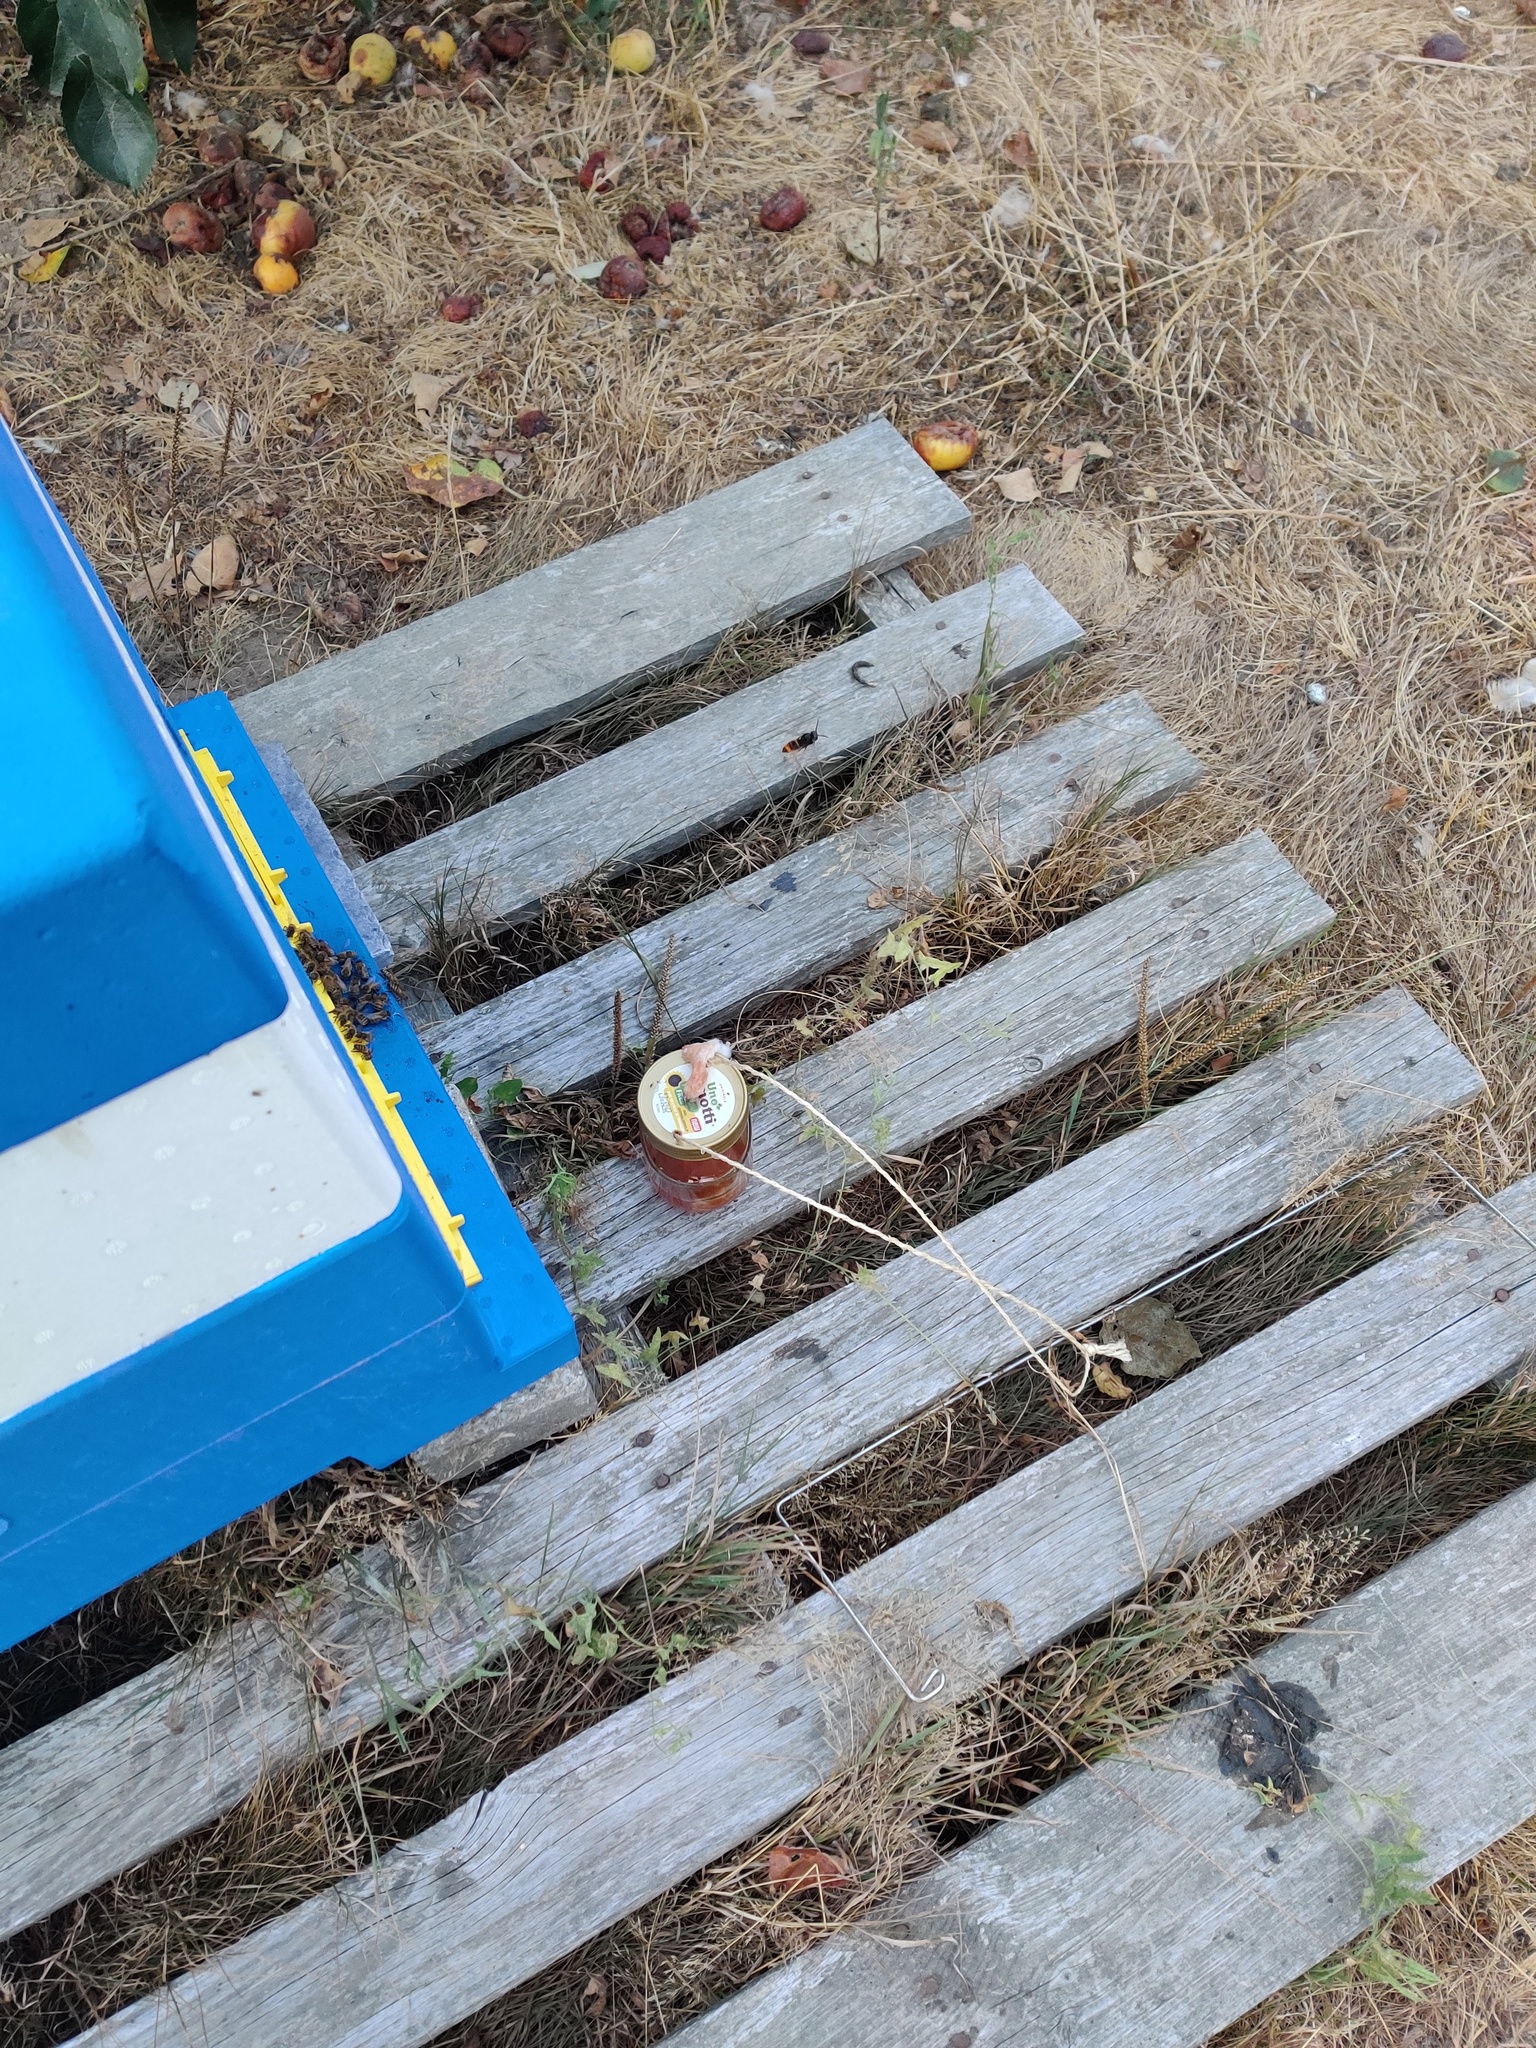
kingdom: Animalia
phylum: Arthropoda
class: Insecta
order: Hymenoptera
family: Vespidae
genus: Vespa
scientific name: Vespa velutina
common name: Asian hornet
